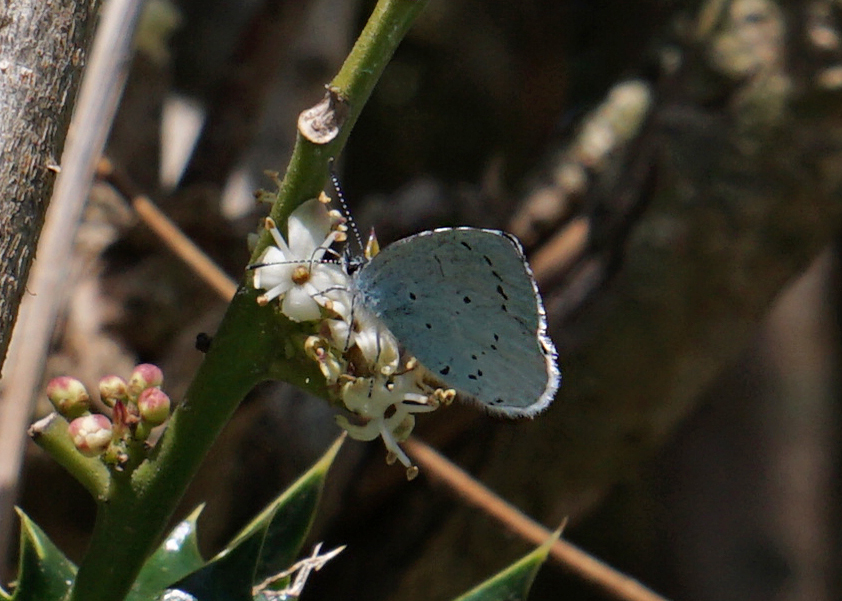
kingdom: Animalia
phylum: Arthropoda
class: Insecta
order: Lepidoptera
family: Lycaenidae
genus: Celastrina
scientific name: Celastrina argiolus
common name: Holly blue
